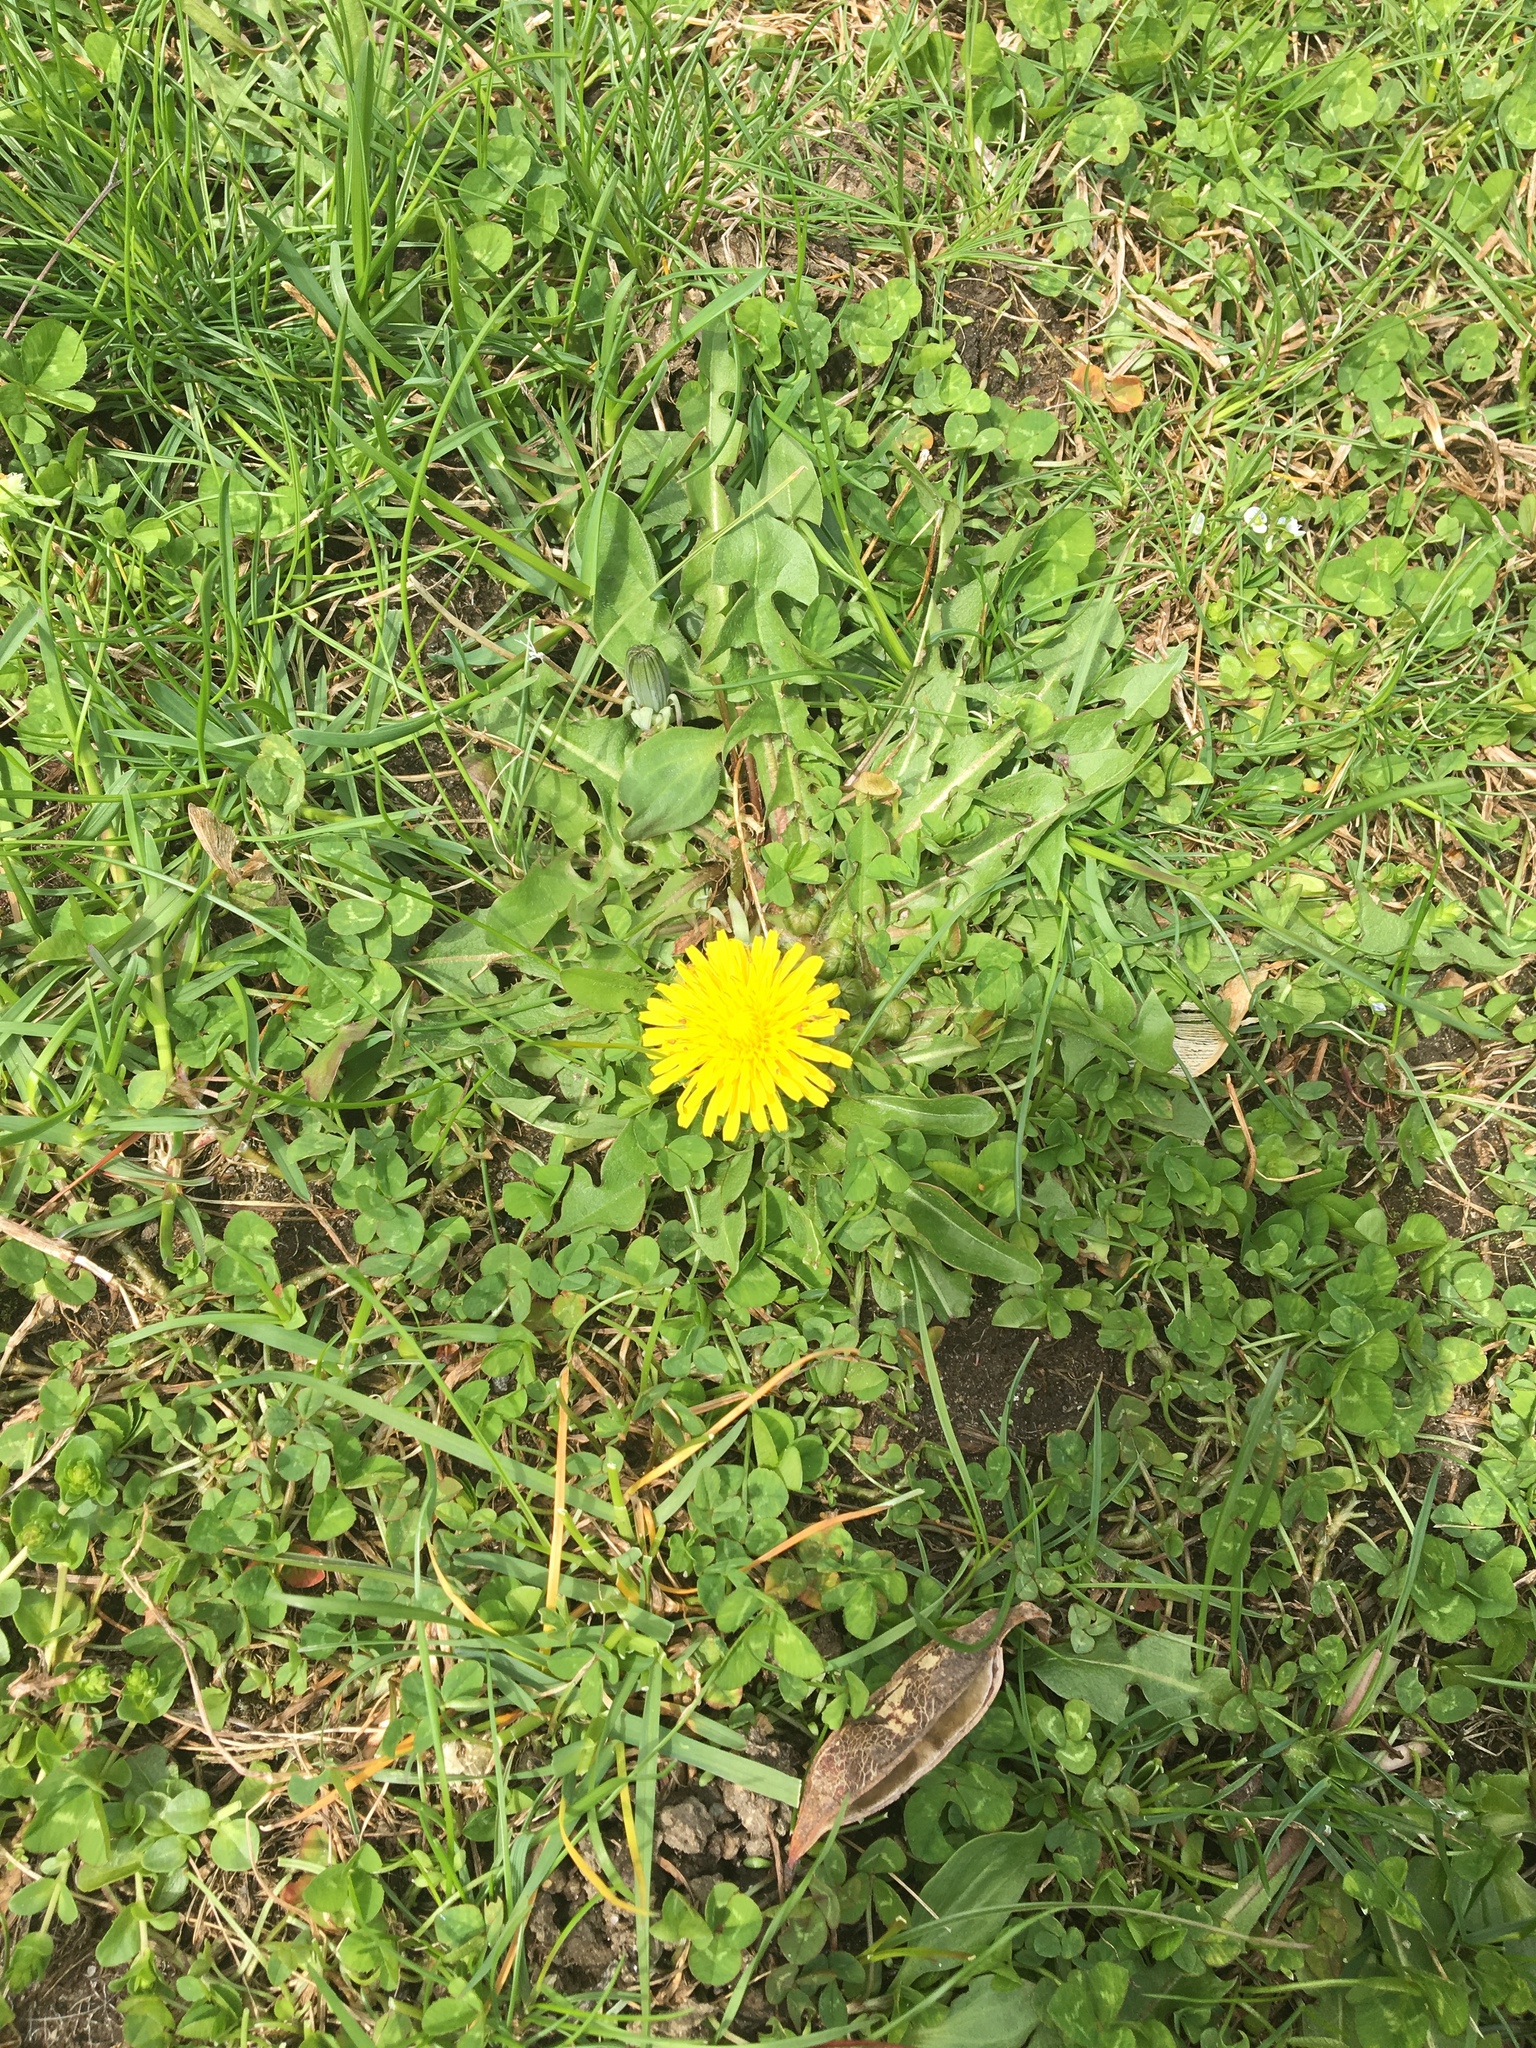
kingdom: Plantae
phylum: Tracheophyta
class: Magnoliopsida
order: Asterales
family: Asteraceae
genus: Taraxacum
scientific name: Taraxacum officinale
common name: Common dandelion
